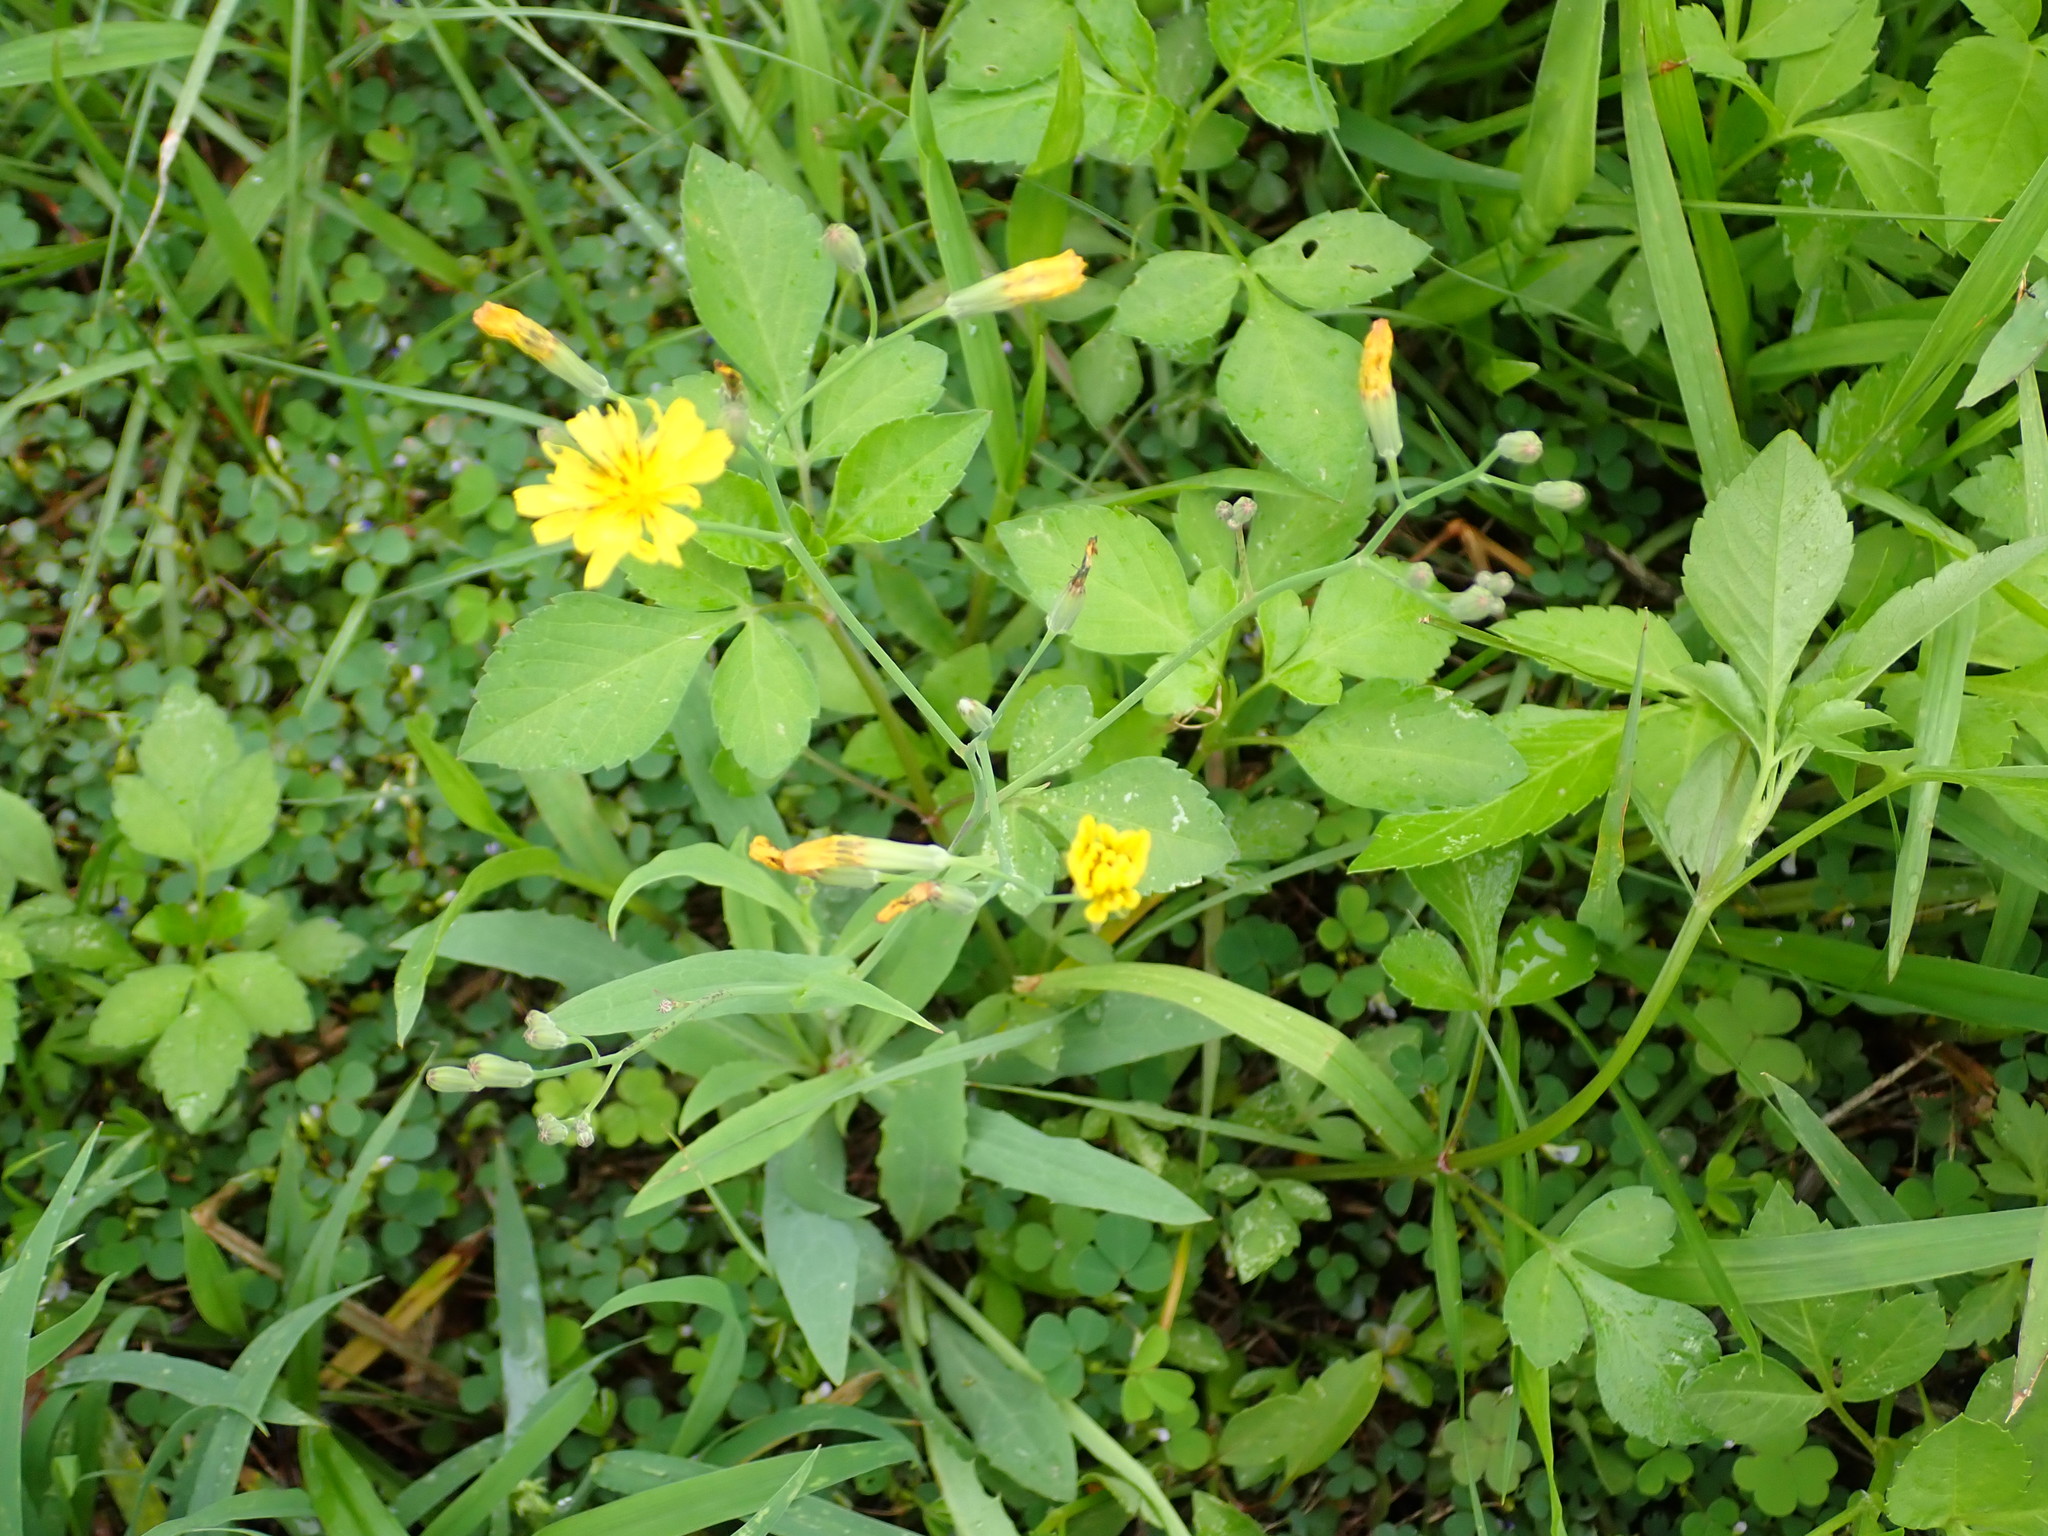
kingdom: Plantae
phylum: Tracheophyta
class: Magnoliopsida
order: Asterales
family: Asteraceae
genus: Ixeris
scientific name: Ixeris chinensis
